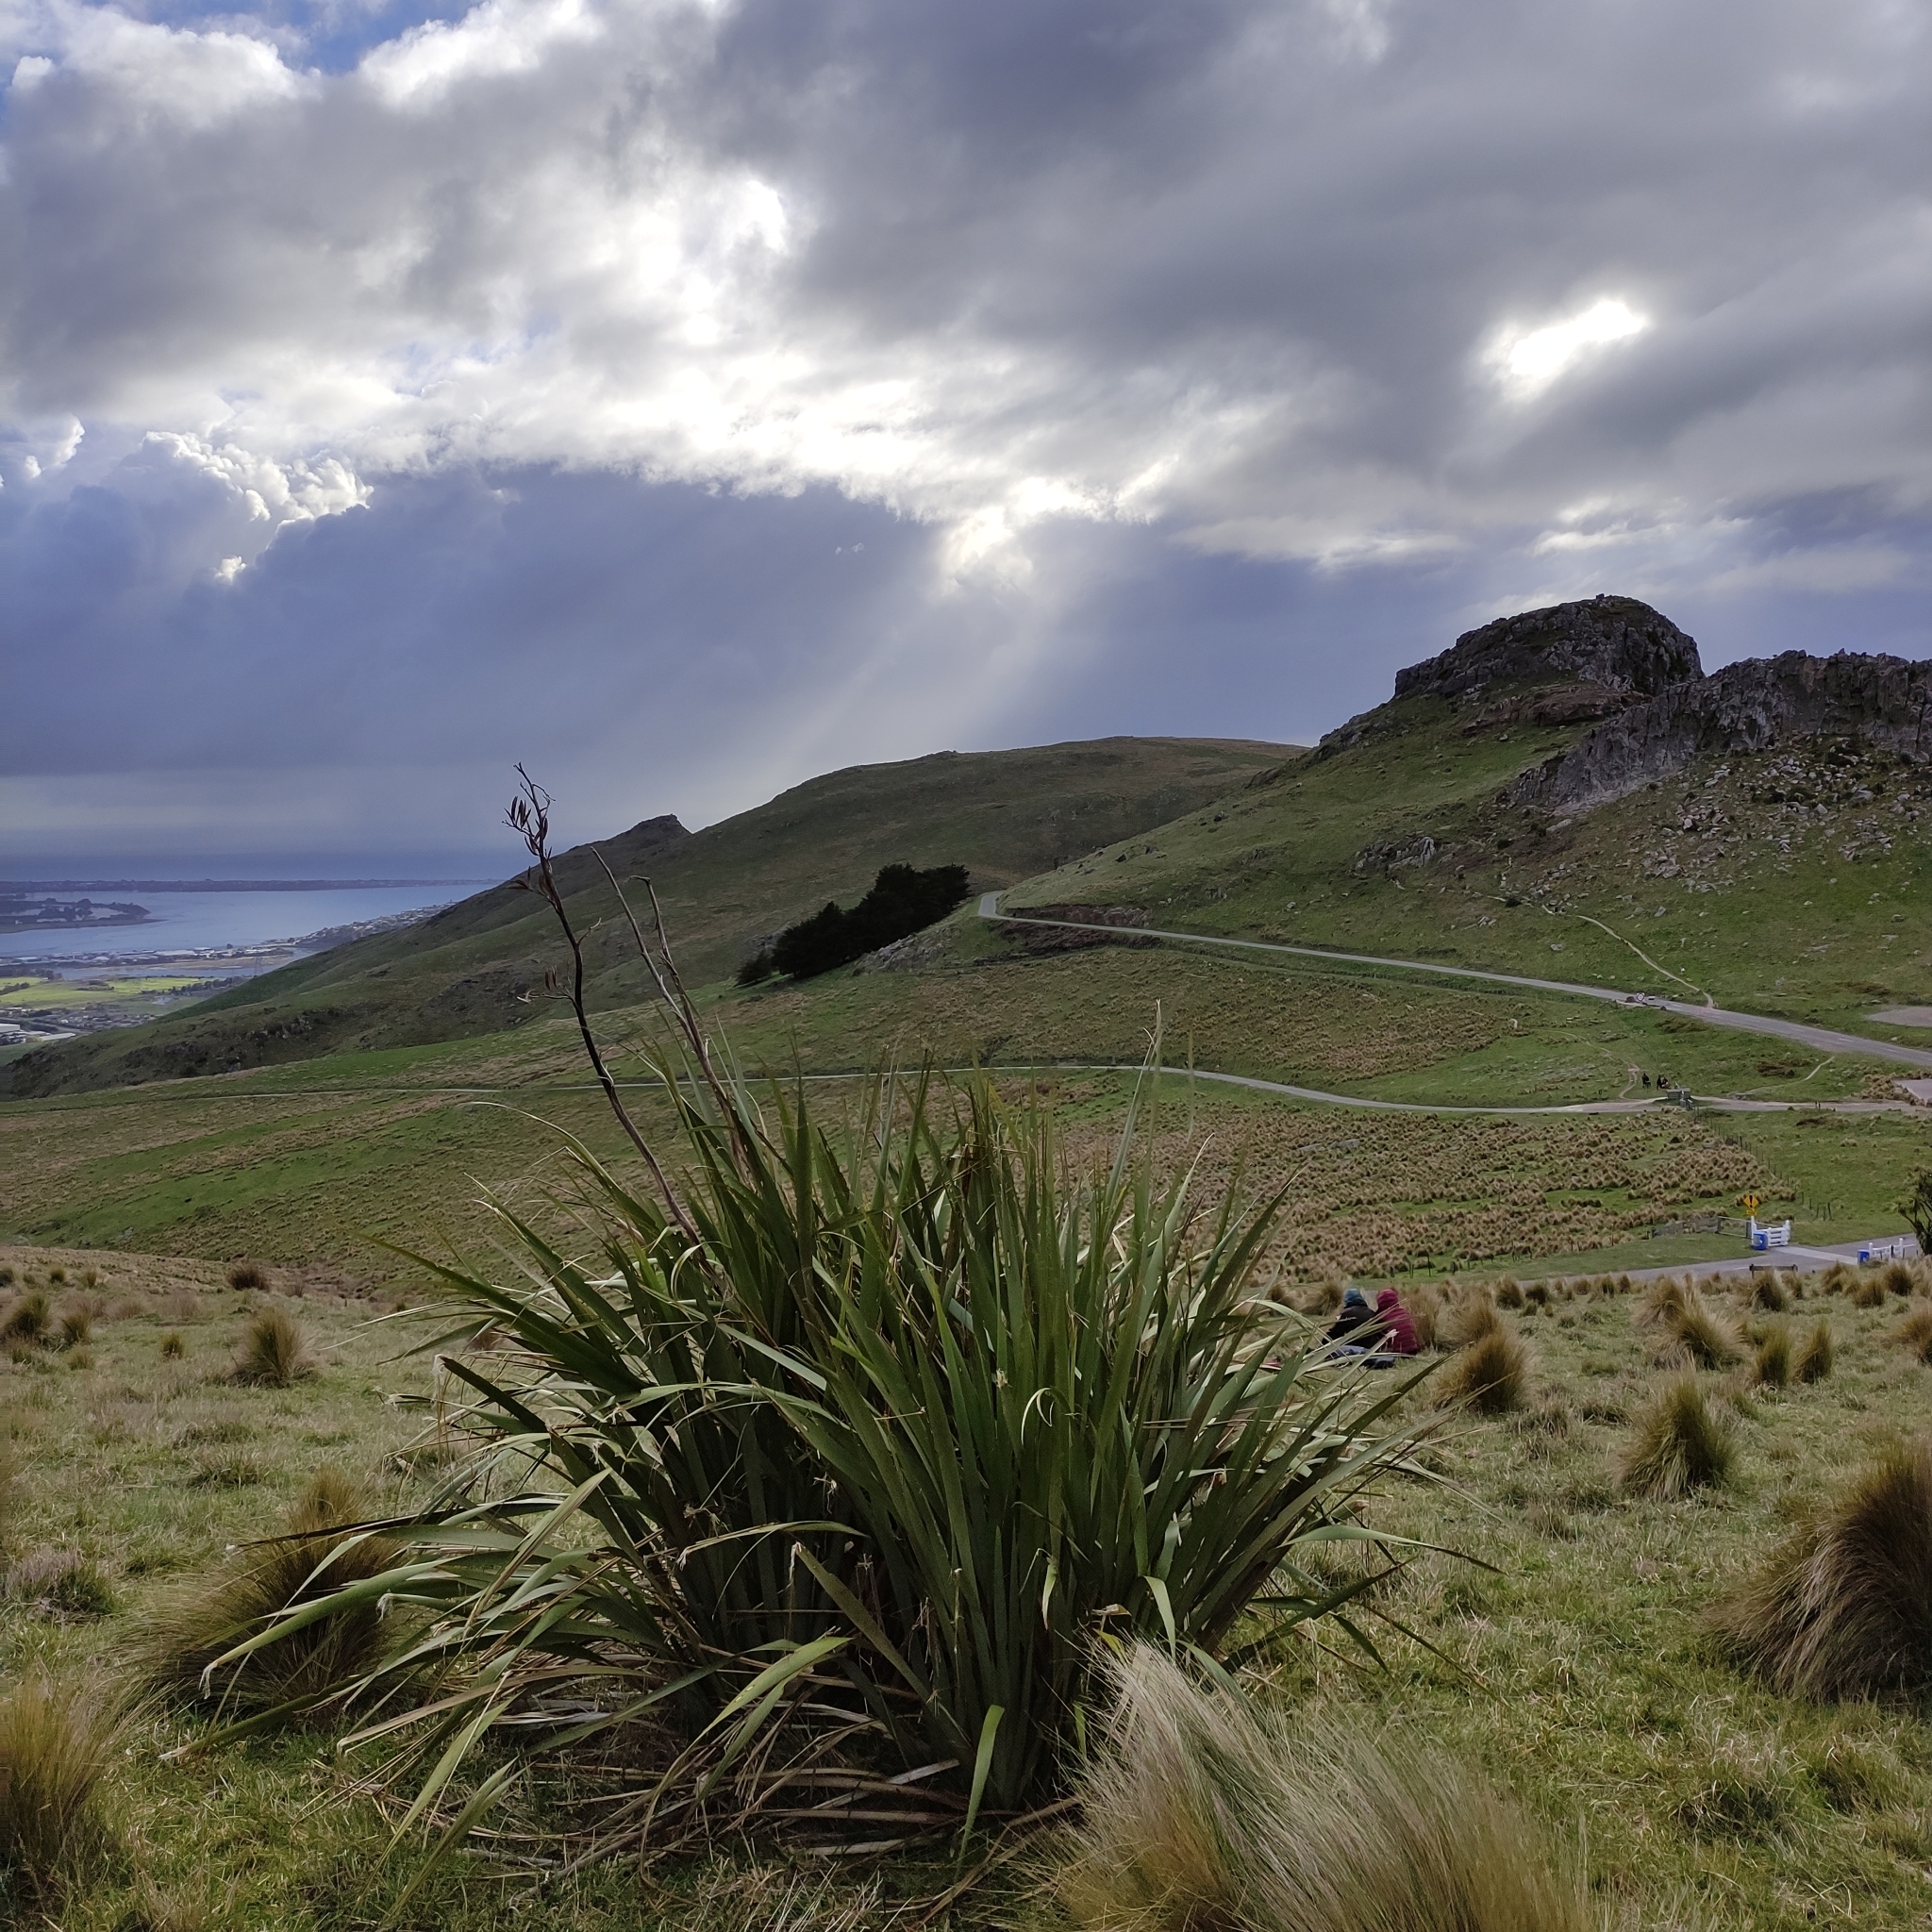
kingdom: Plantae
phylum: Tracheophyta
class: Liliopsida
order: Asparagales
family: Asphodelaceae
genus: Phormium
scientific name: Phormium tenax
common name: New zealand flax
